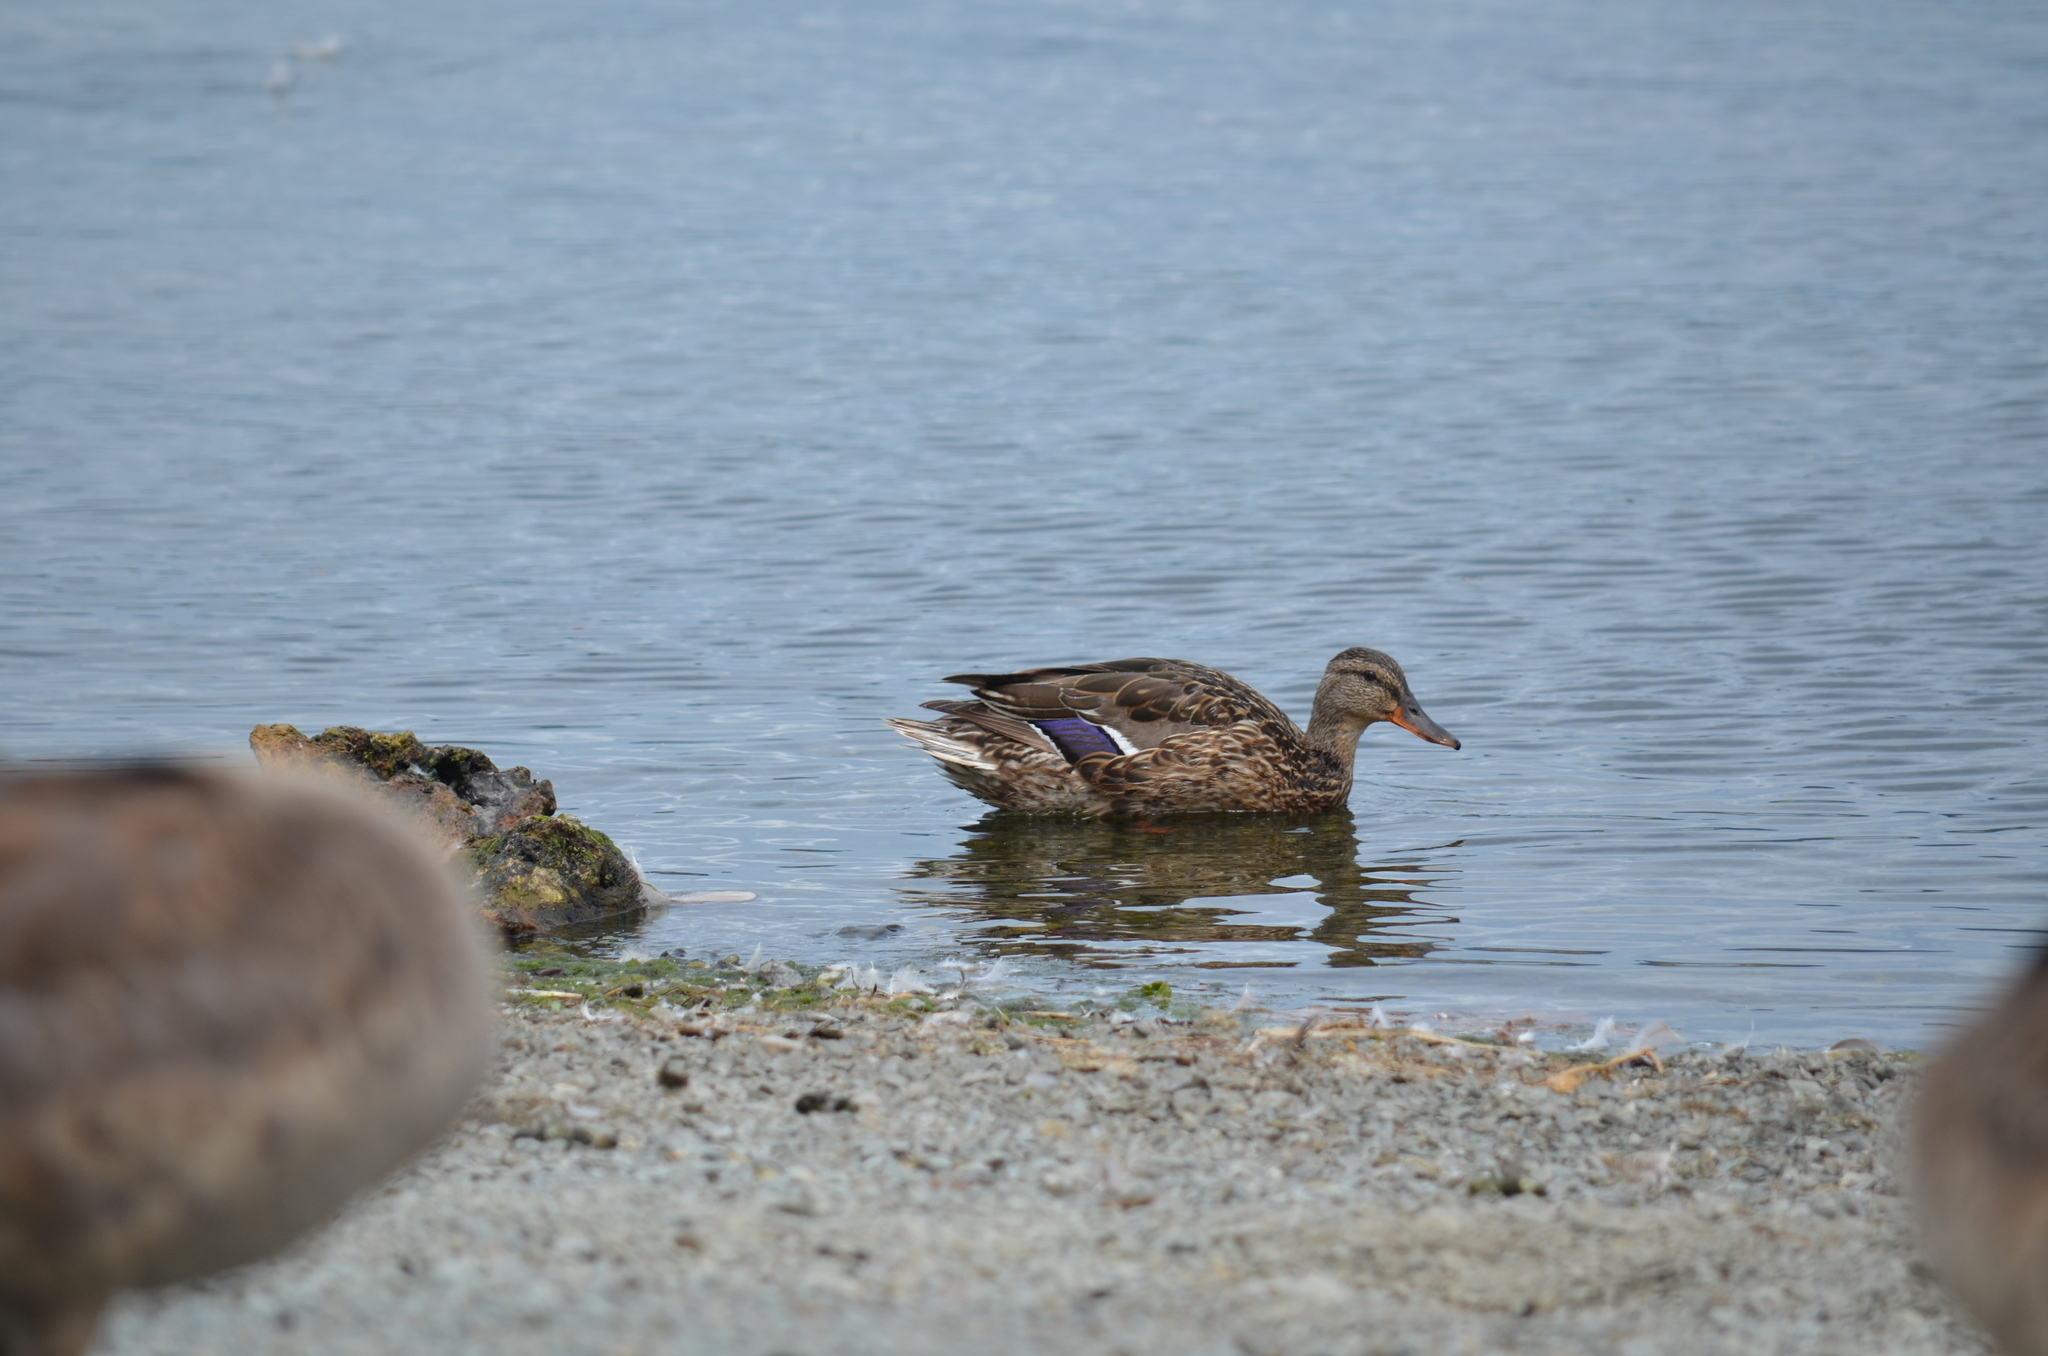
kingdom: Animalia
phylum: Chordata
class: Aves
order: Anseriformes
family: Anatidae
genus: Anas
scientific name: Anas platyrhynchos
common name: Mallard
